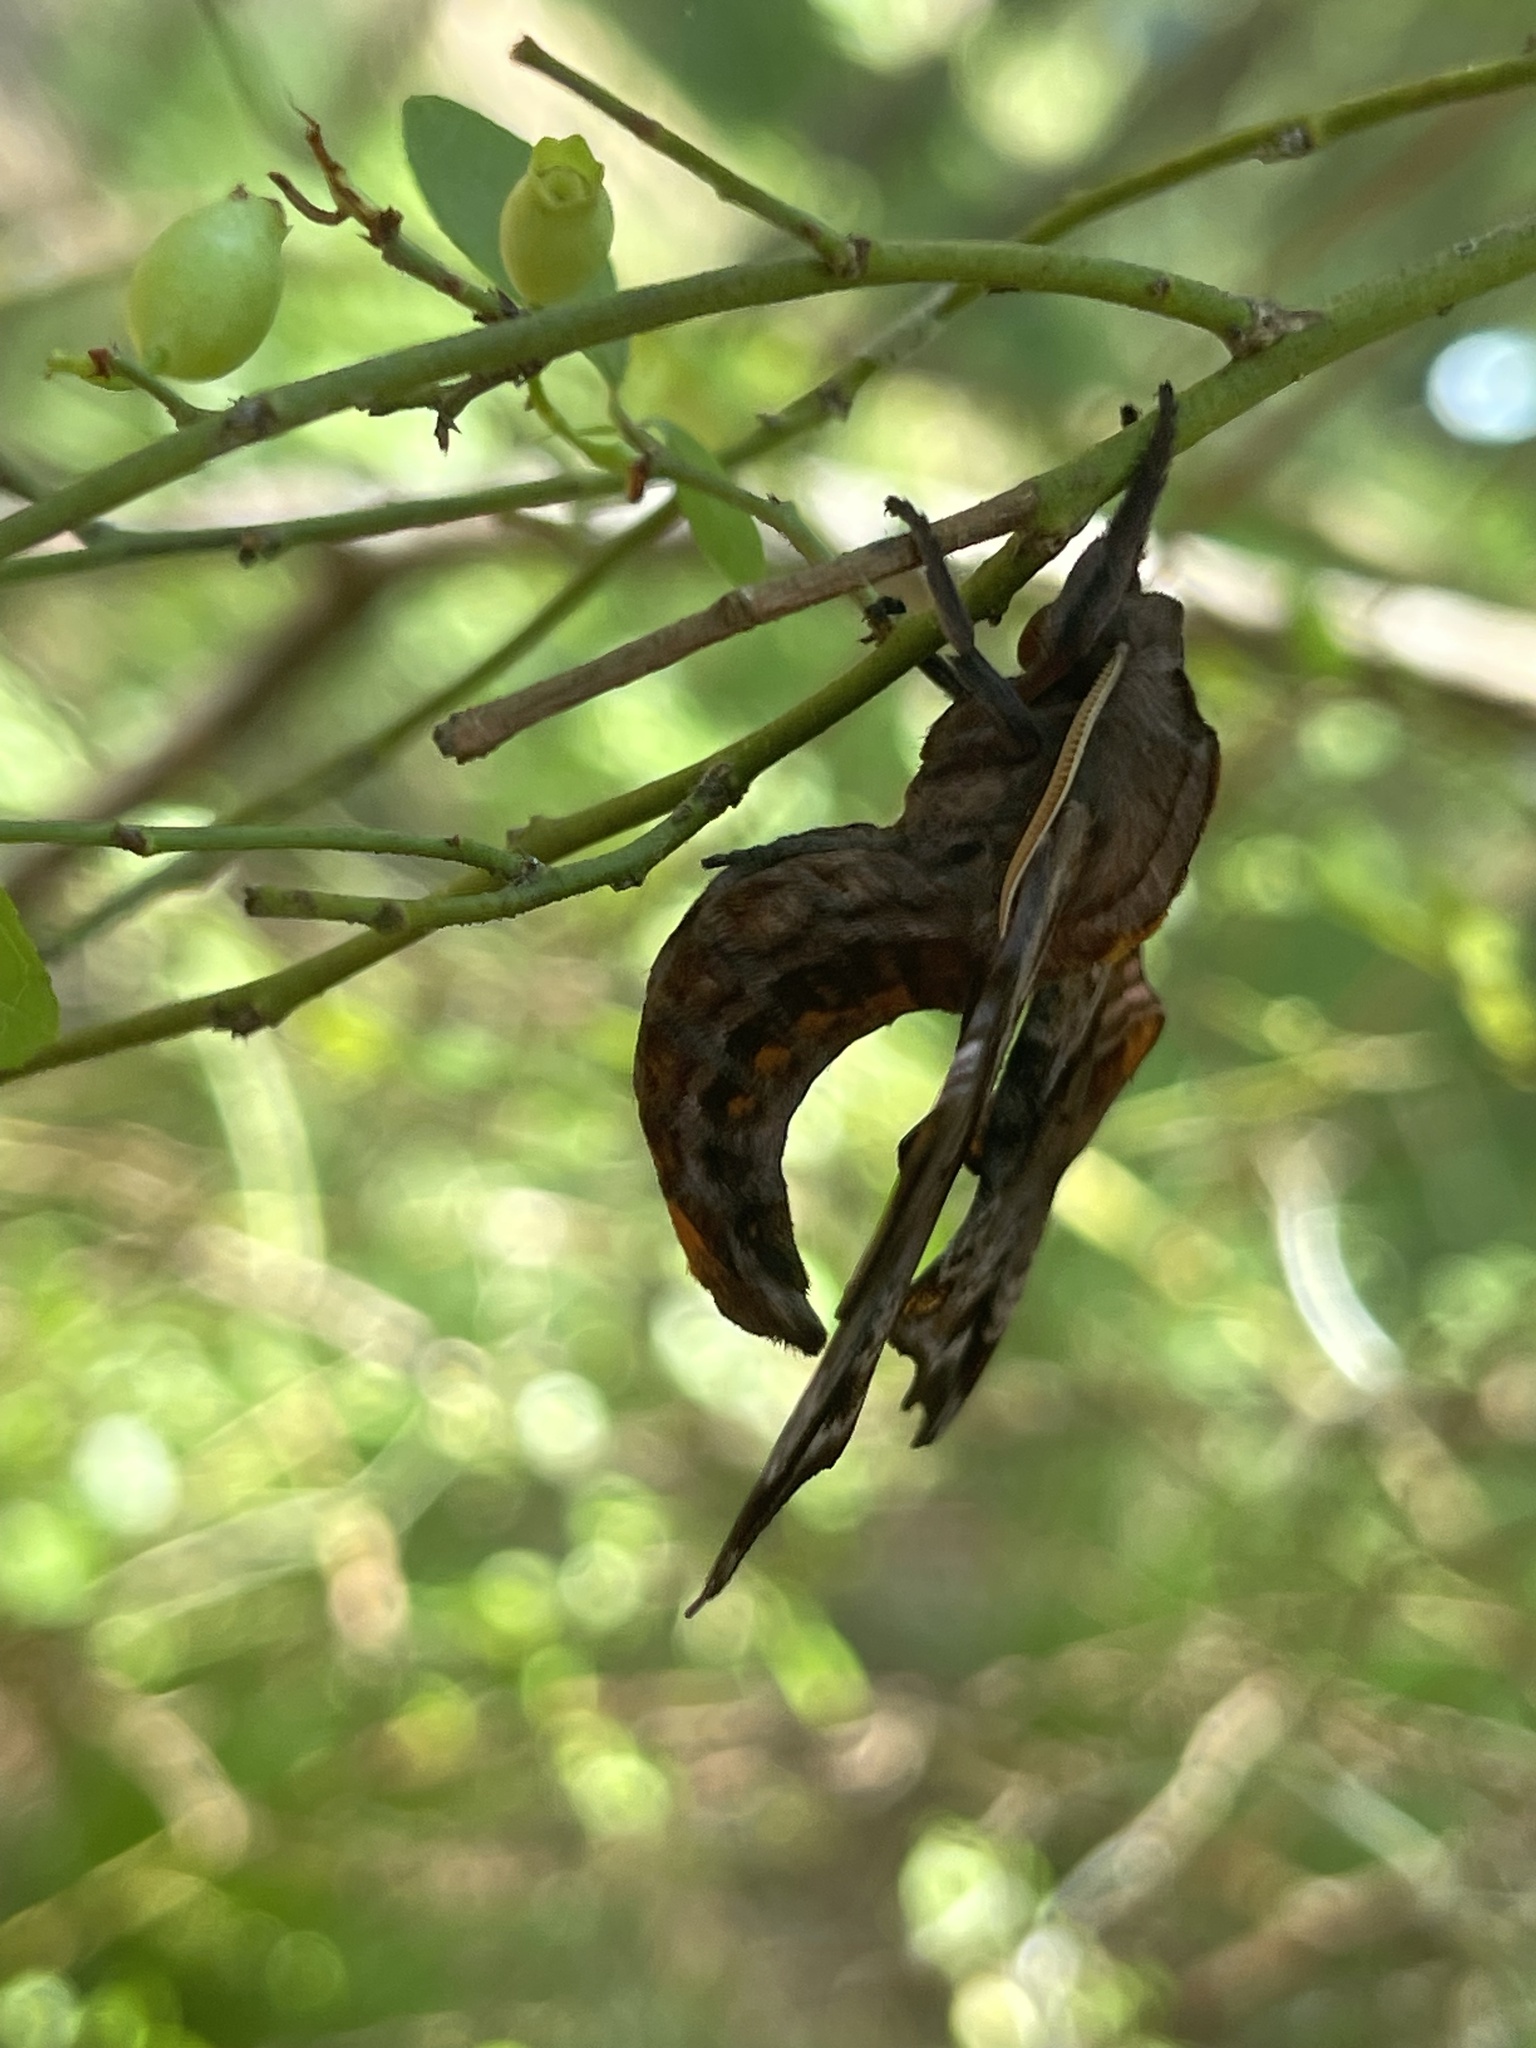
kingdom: Animalia
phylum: Arthropoda
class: Insecta
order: Lepidoptera
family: Sphingidae
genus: Paonias
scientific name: Paonias myops
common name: Small-eyed sphinx
